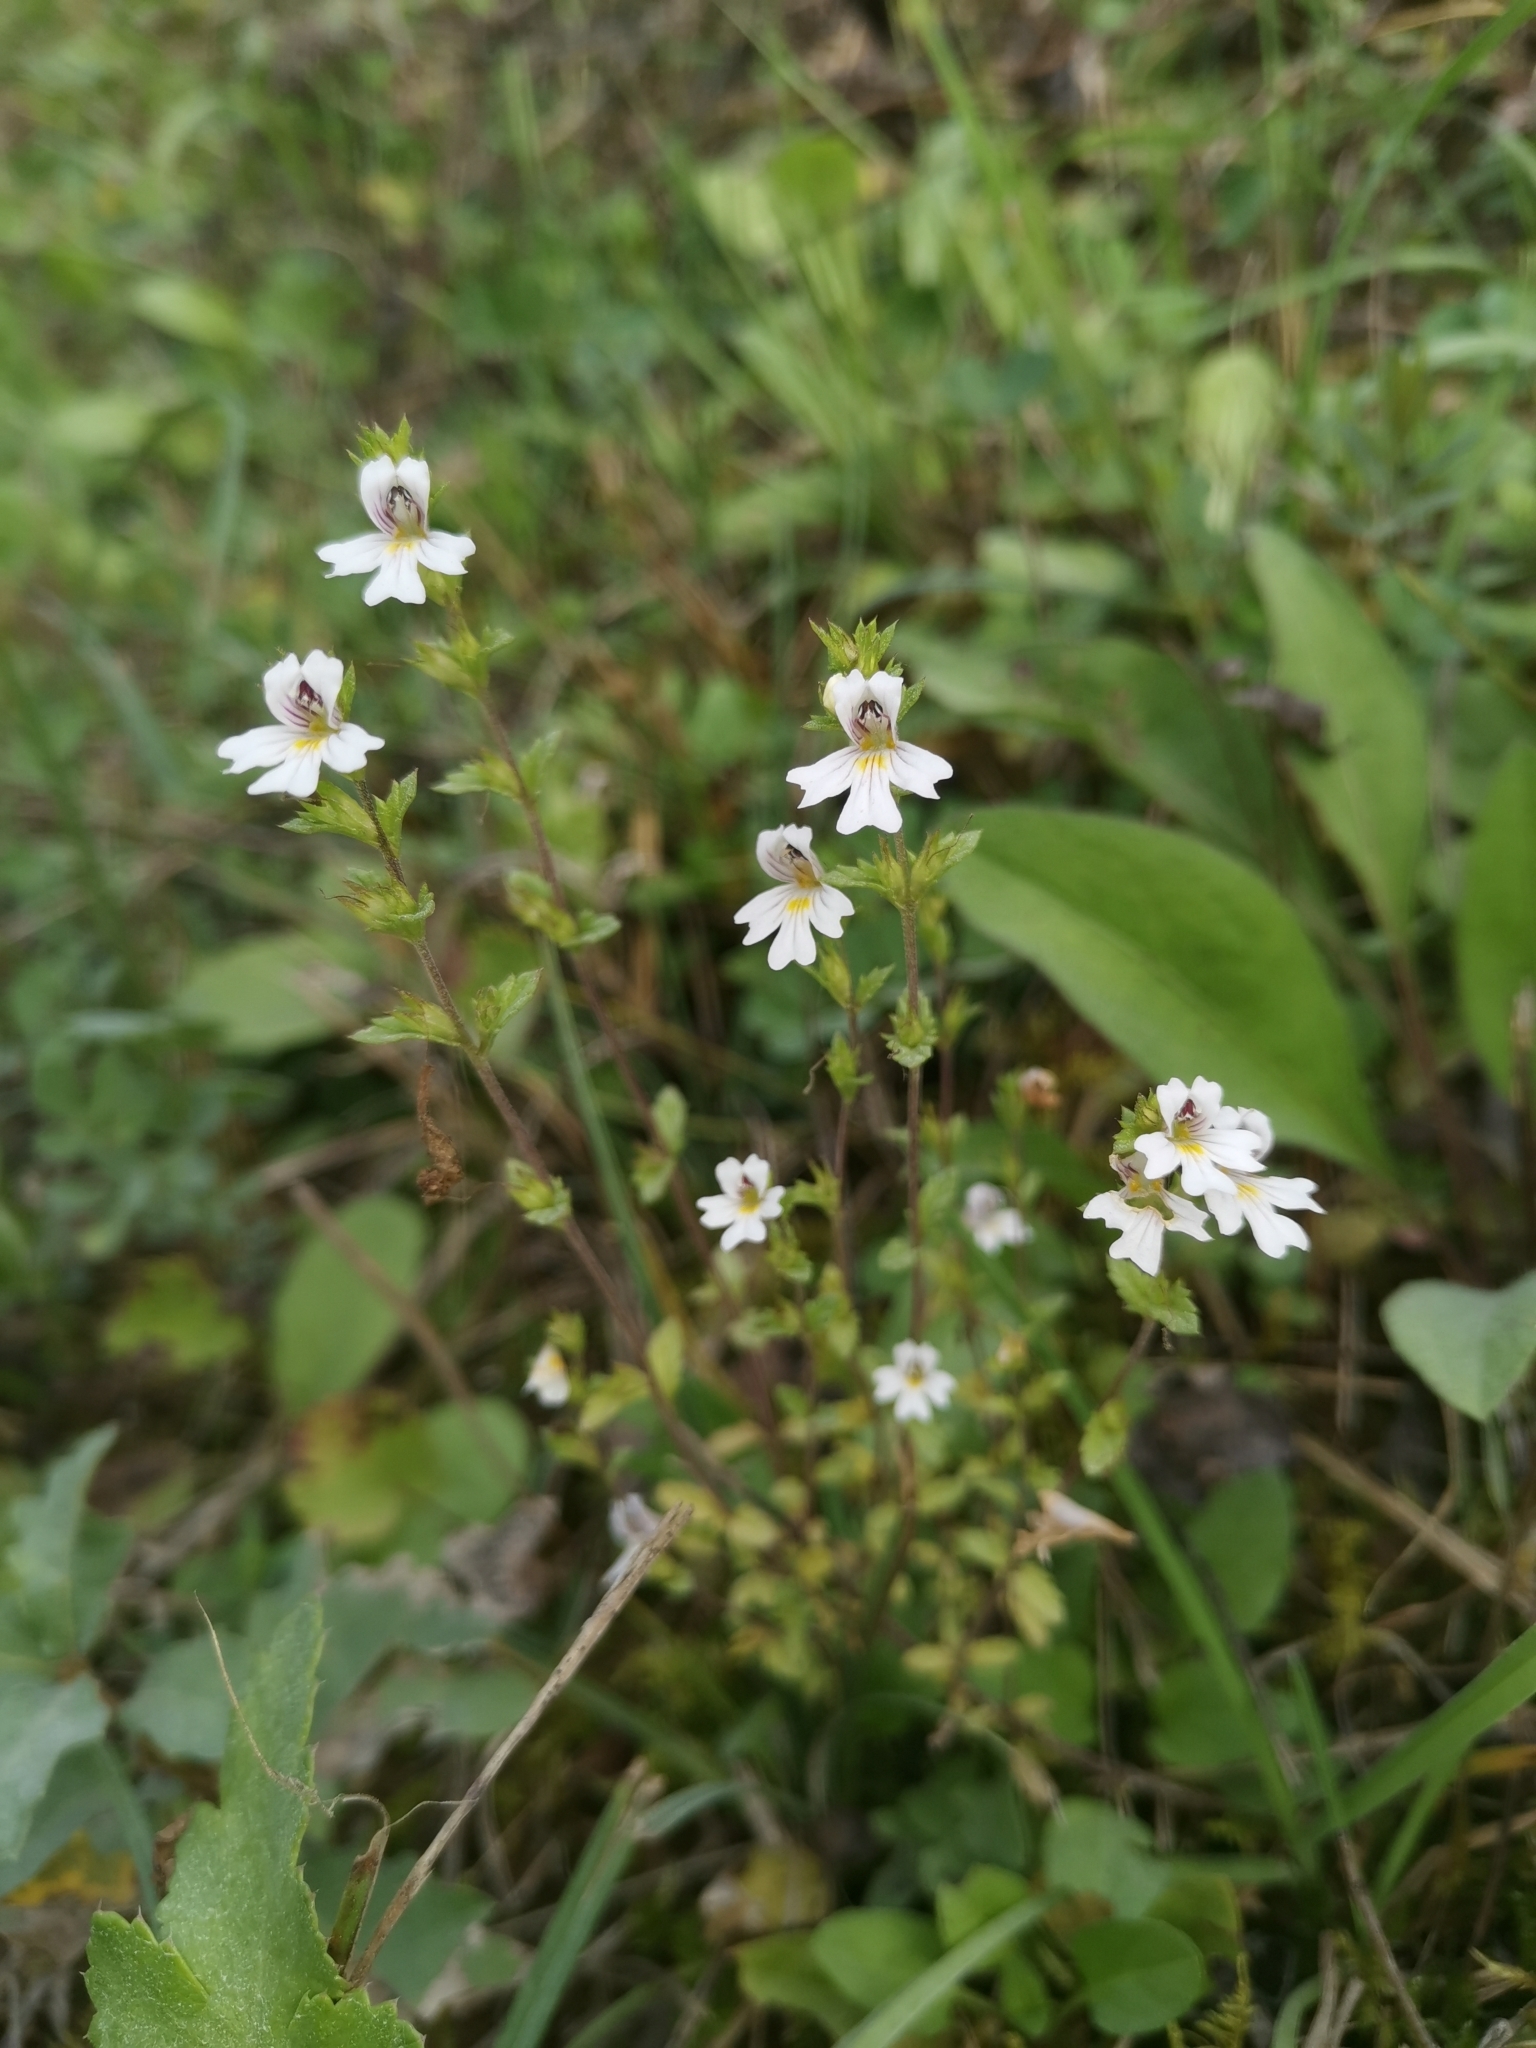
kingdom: Plantae
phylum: Tracheophyta
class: Magnoliopsida
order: Lamiales
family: Orobanchaceae
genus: Euphrasia
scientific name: Euphrasia marchesettii
